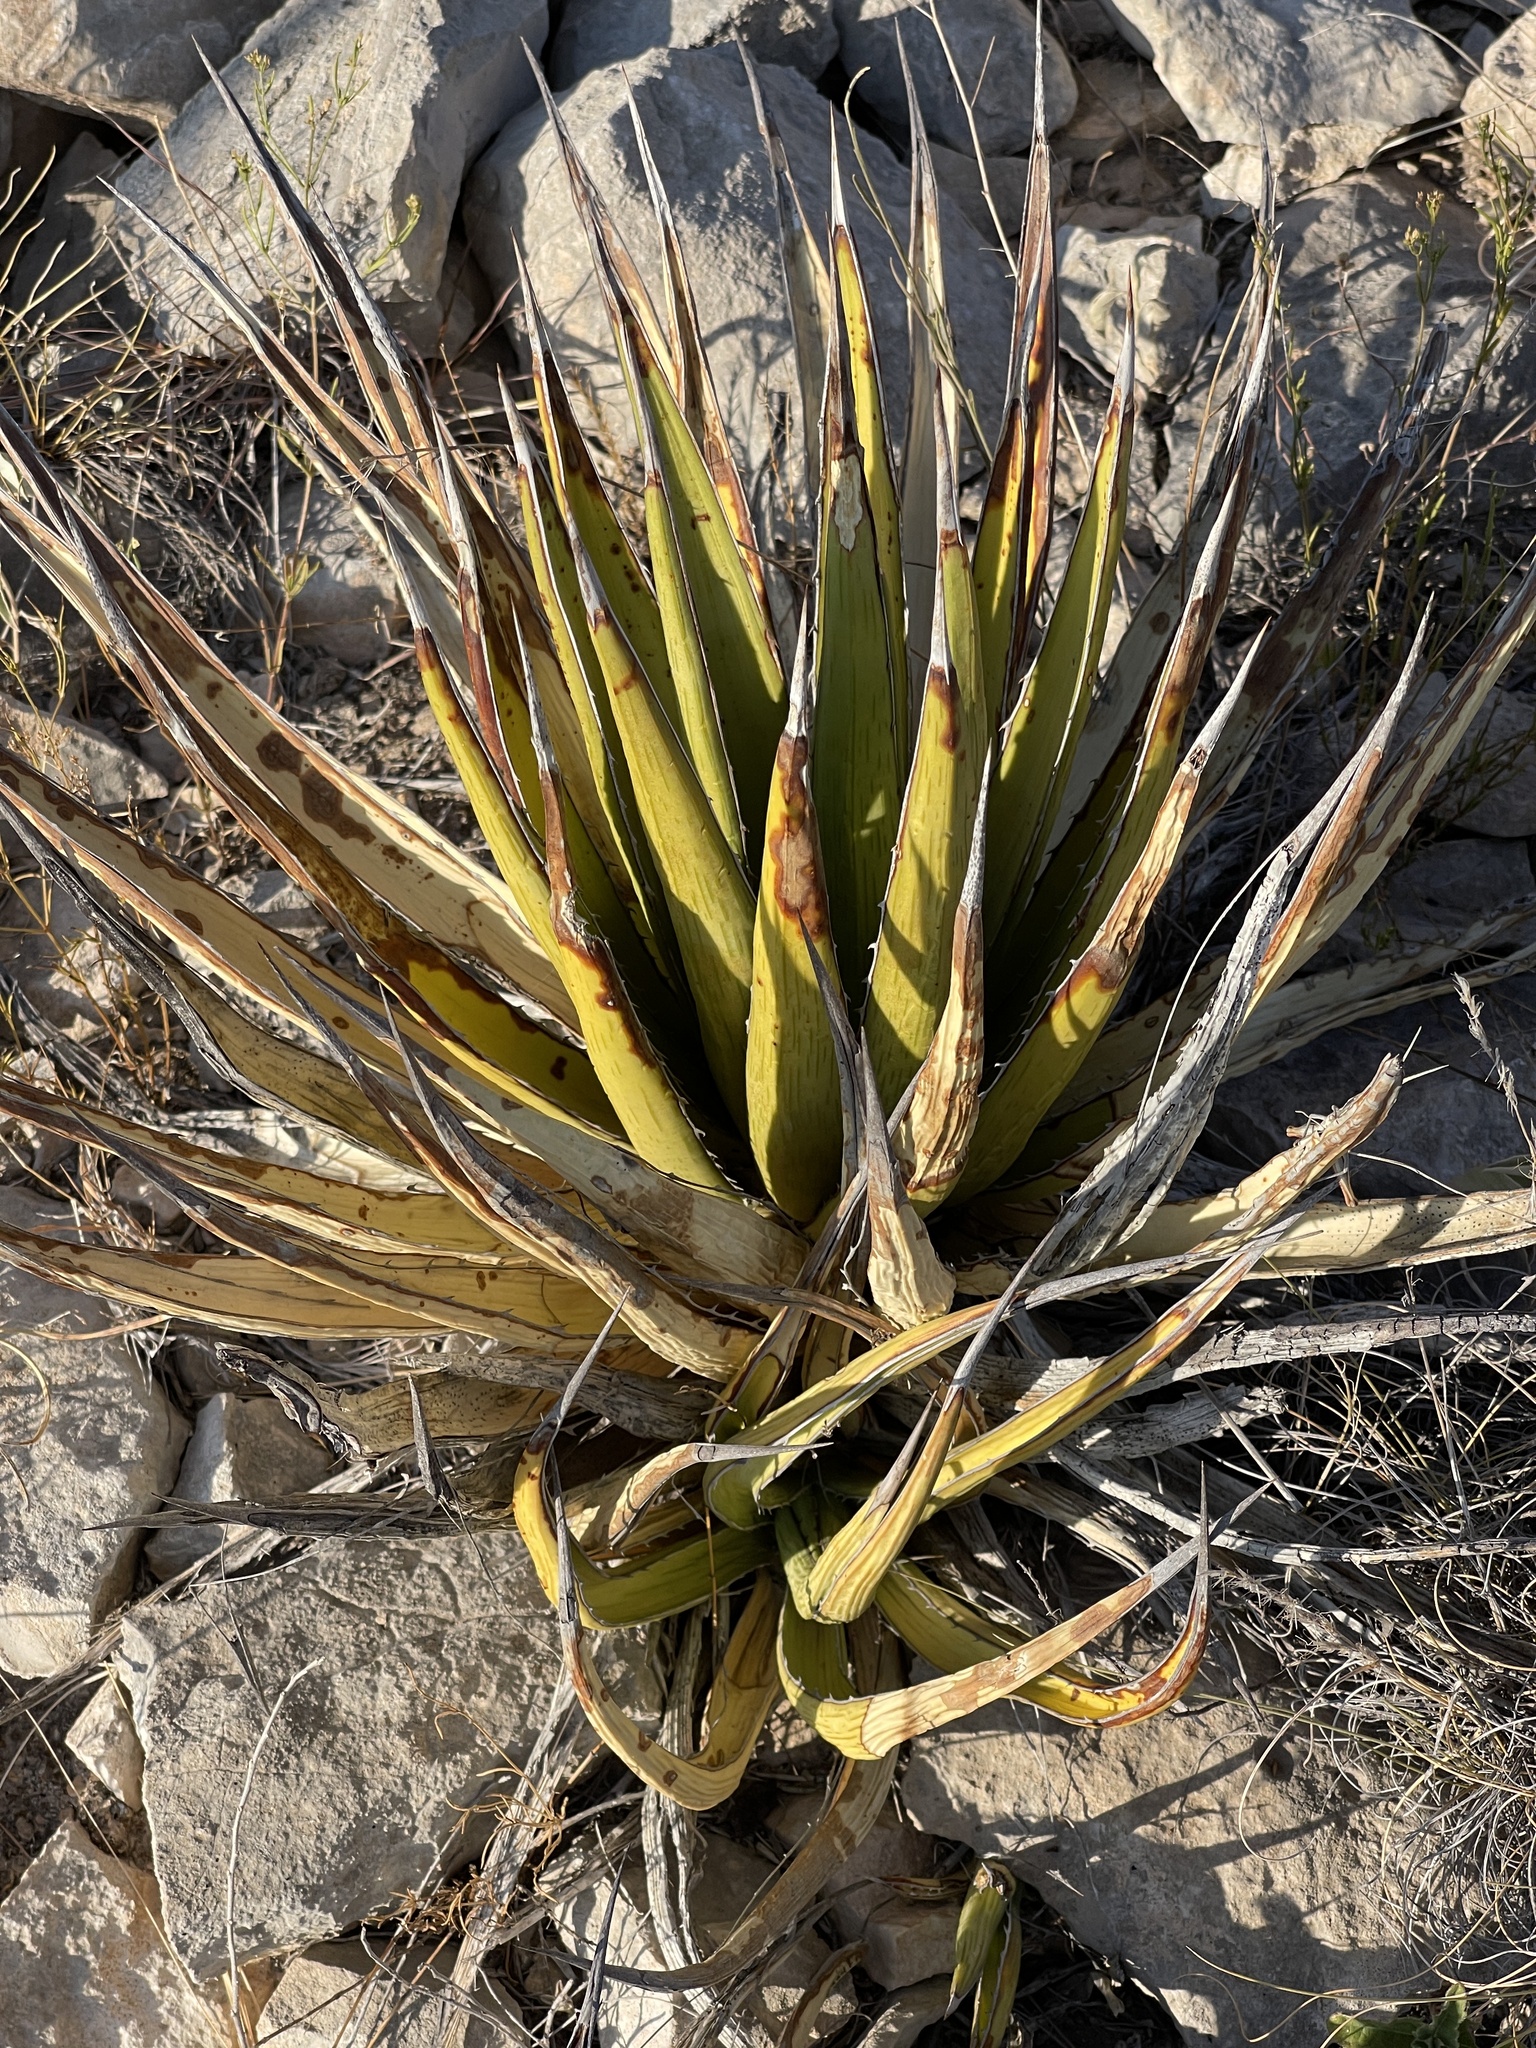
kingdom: Plantae
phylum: Tracheophyta
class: Liliopsida
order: Asparagales
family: Asparagaceae
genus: Agave
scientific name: Agave lechuguilla
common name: Lecheguilla agave
